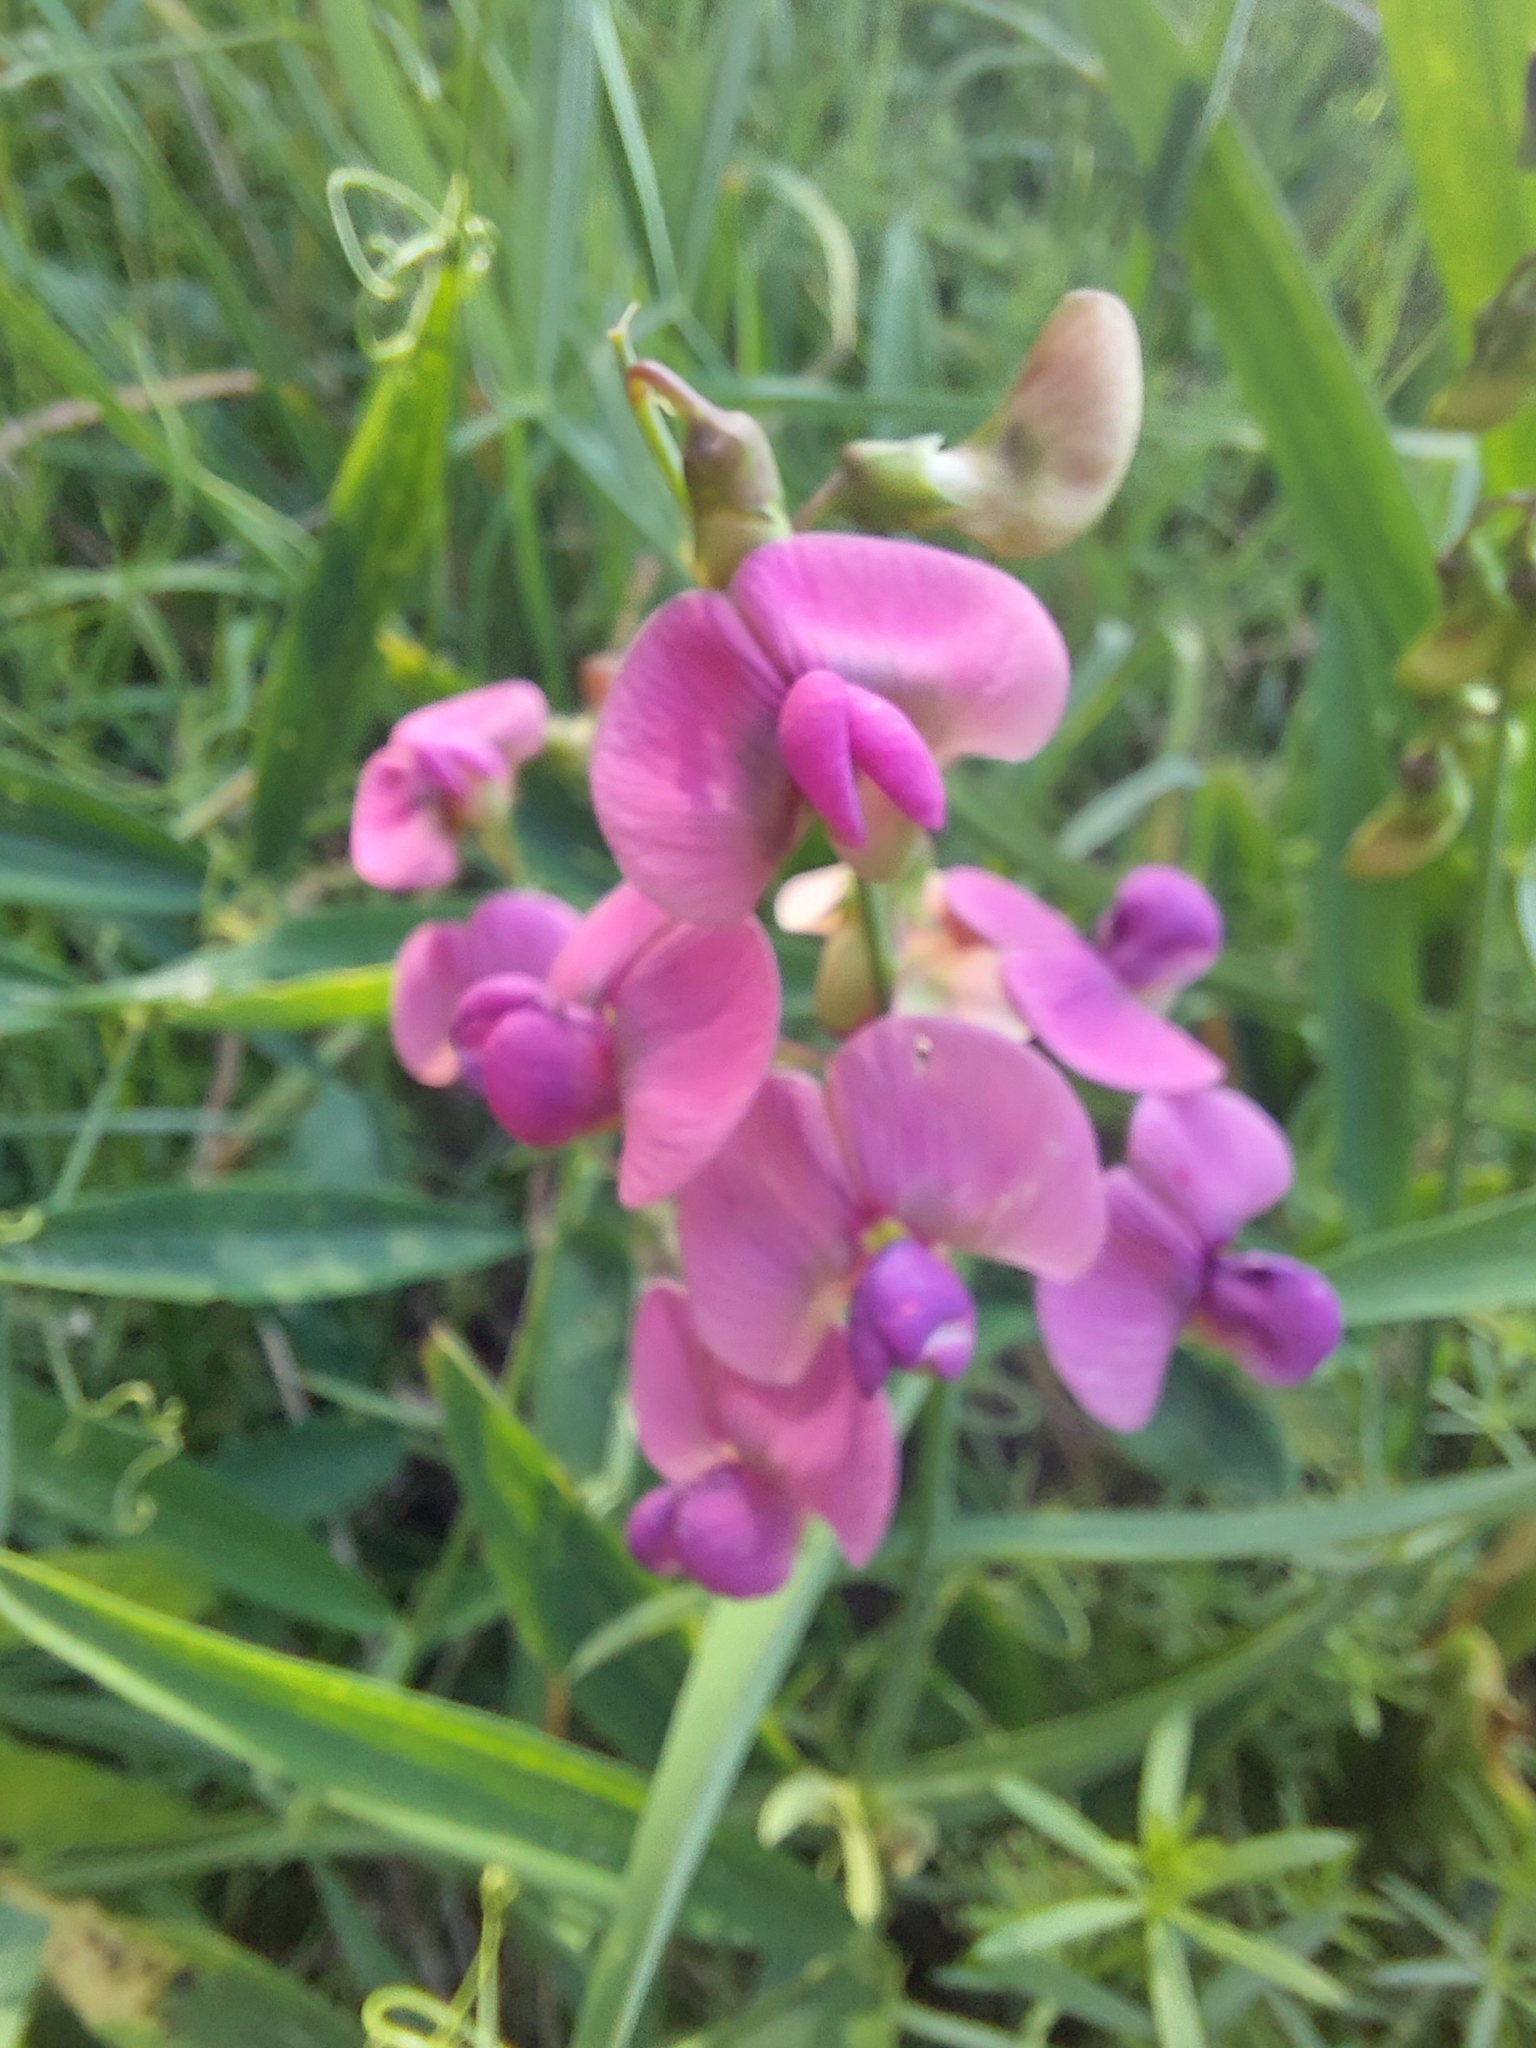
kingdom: Plantae
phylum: Tracheophyta
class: Magnoliopsida
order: Fabales
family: Fabaceae
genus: Lathyrus
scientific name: Lathyrus sylvestris
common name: Flat pea
